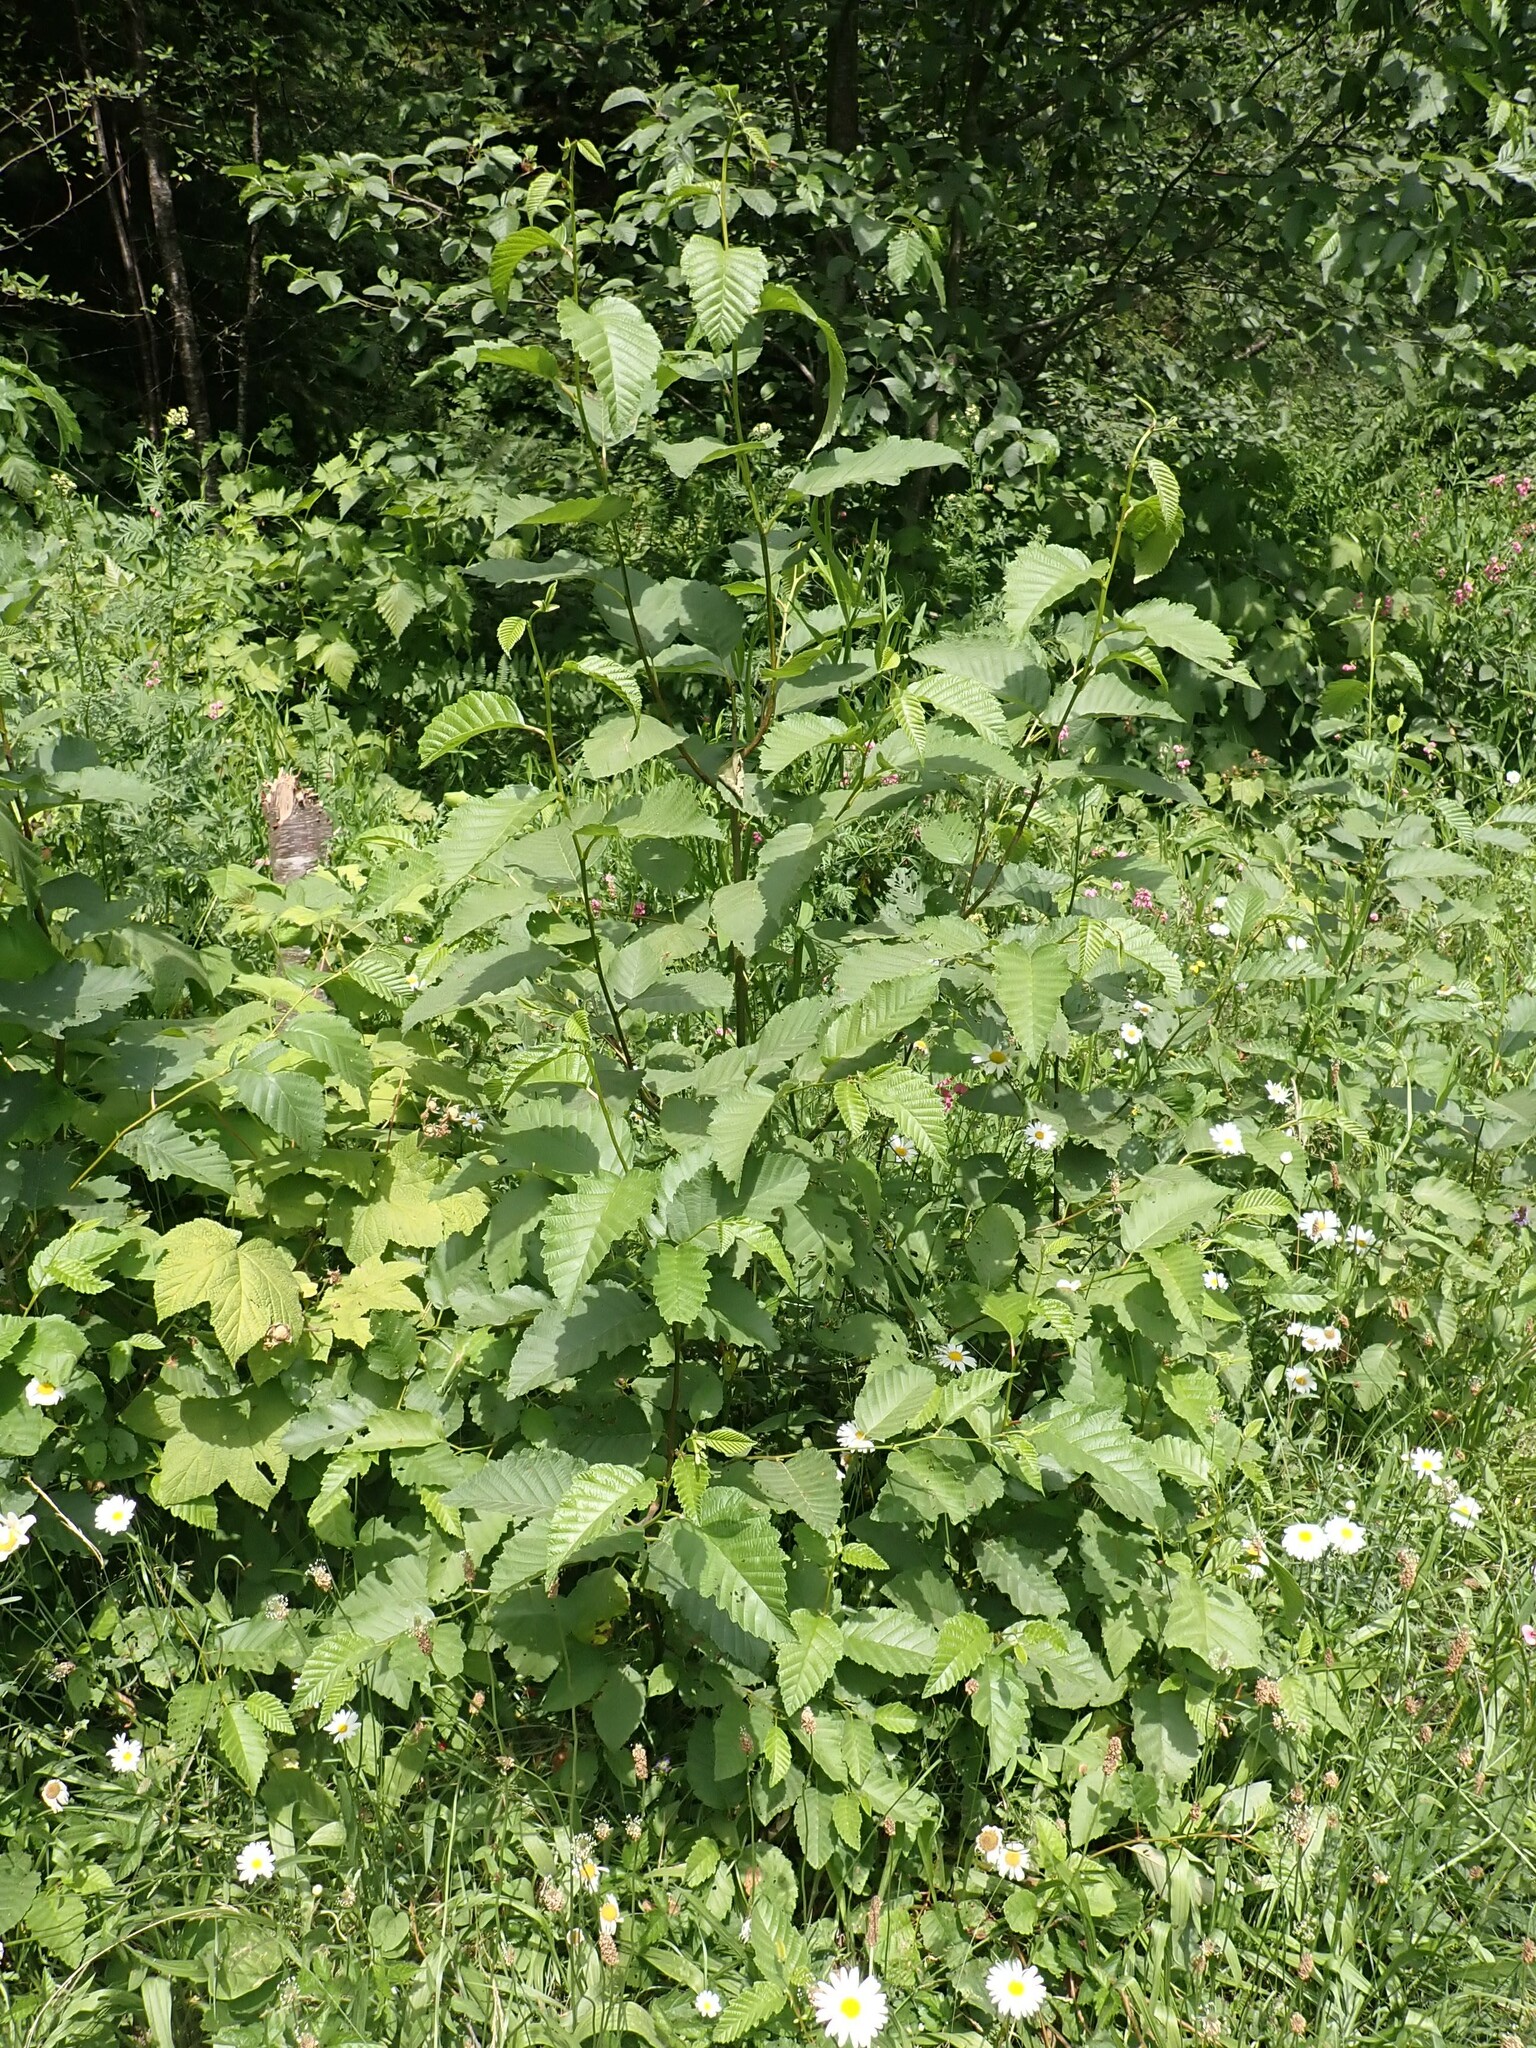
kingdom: Plantae
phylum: Tracheophyta
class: Magnoliopsida
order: Fagales
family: Betulaceae
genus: Alnus
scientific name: Alnus rubra
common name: Red alder
